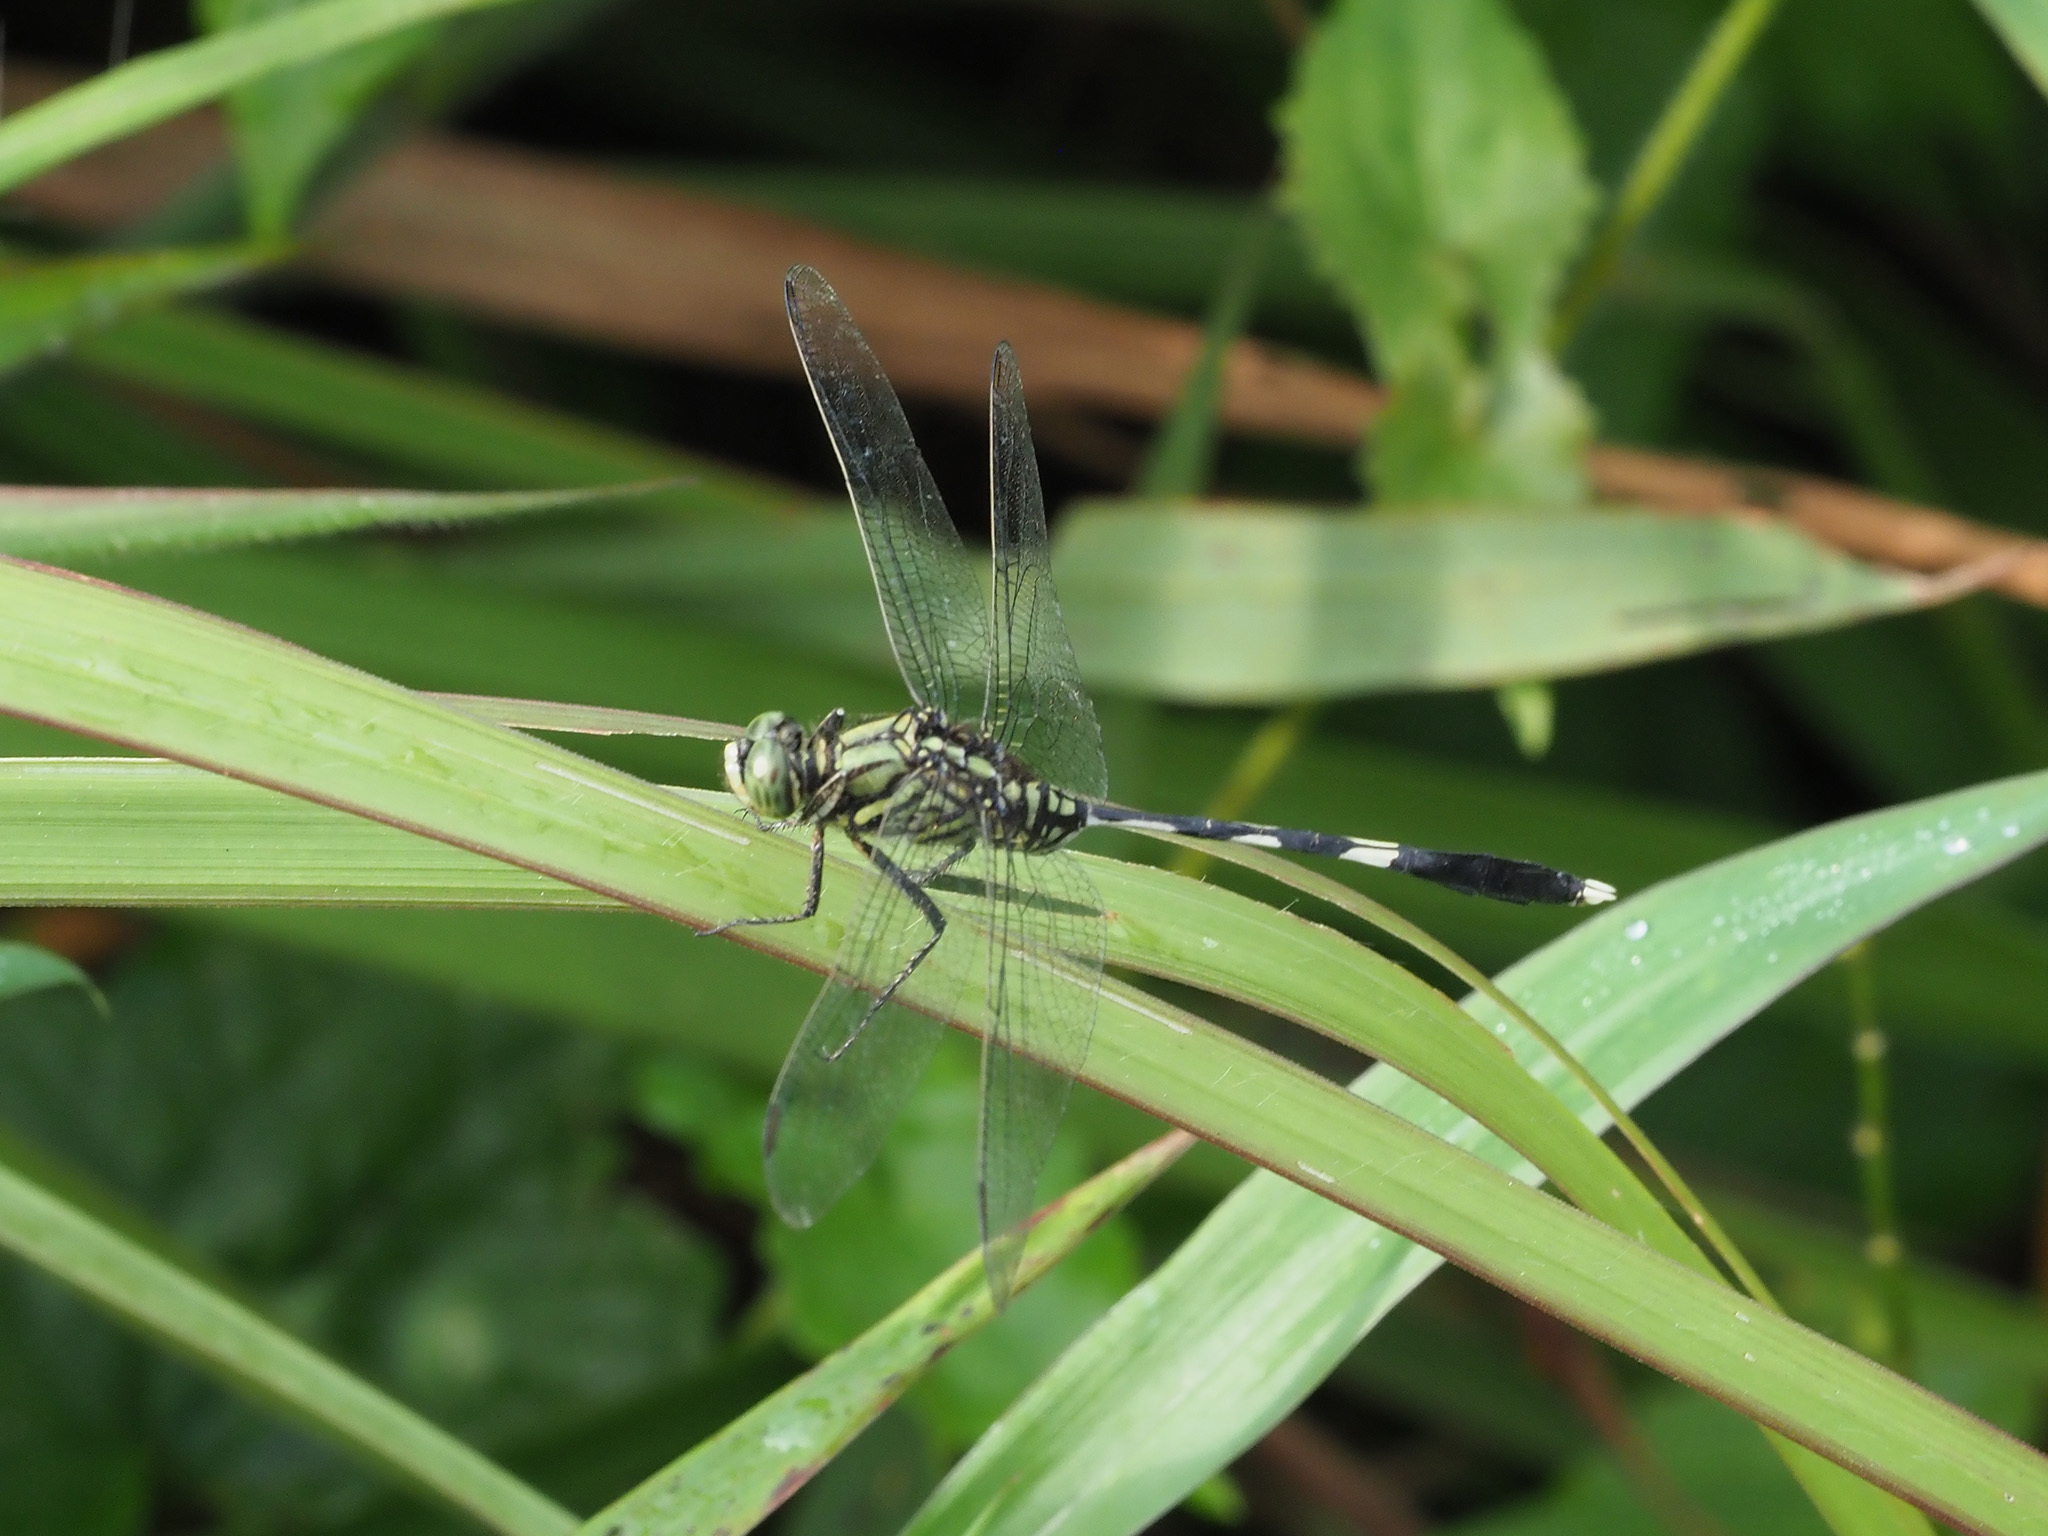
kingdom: Animalia
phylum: Arthropoda
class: Insecta
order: Odonata
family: Libellulidae
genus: Orthetrum
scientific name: Orthetrum sabina
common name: Slender skimmer
